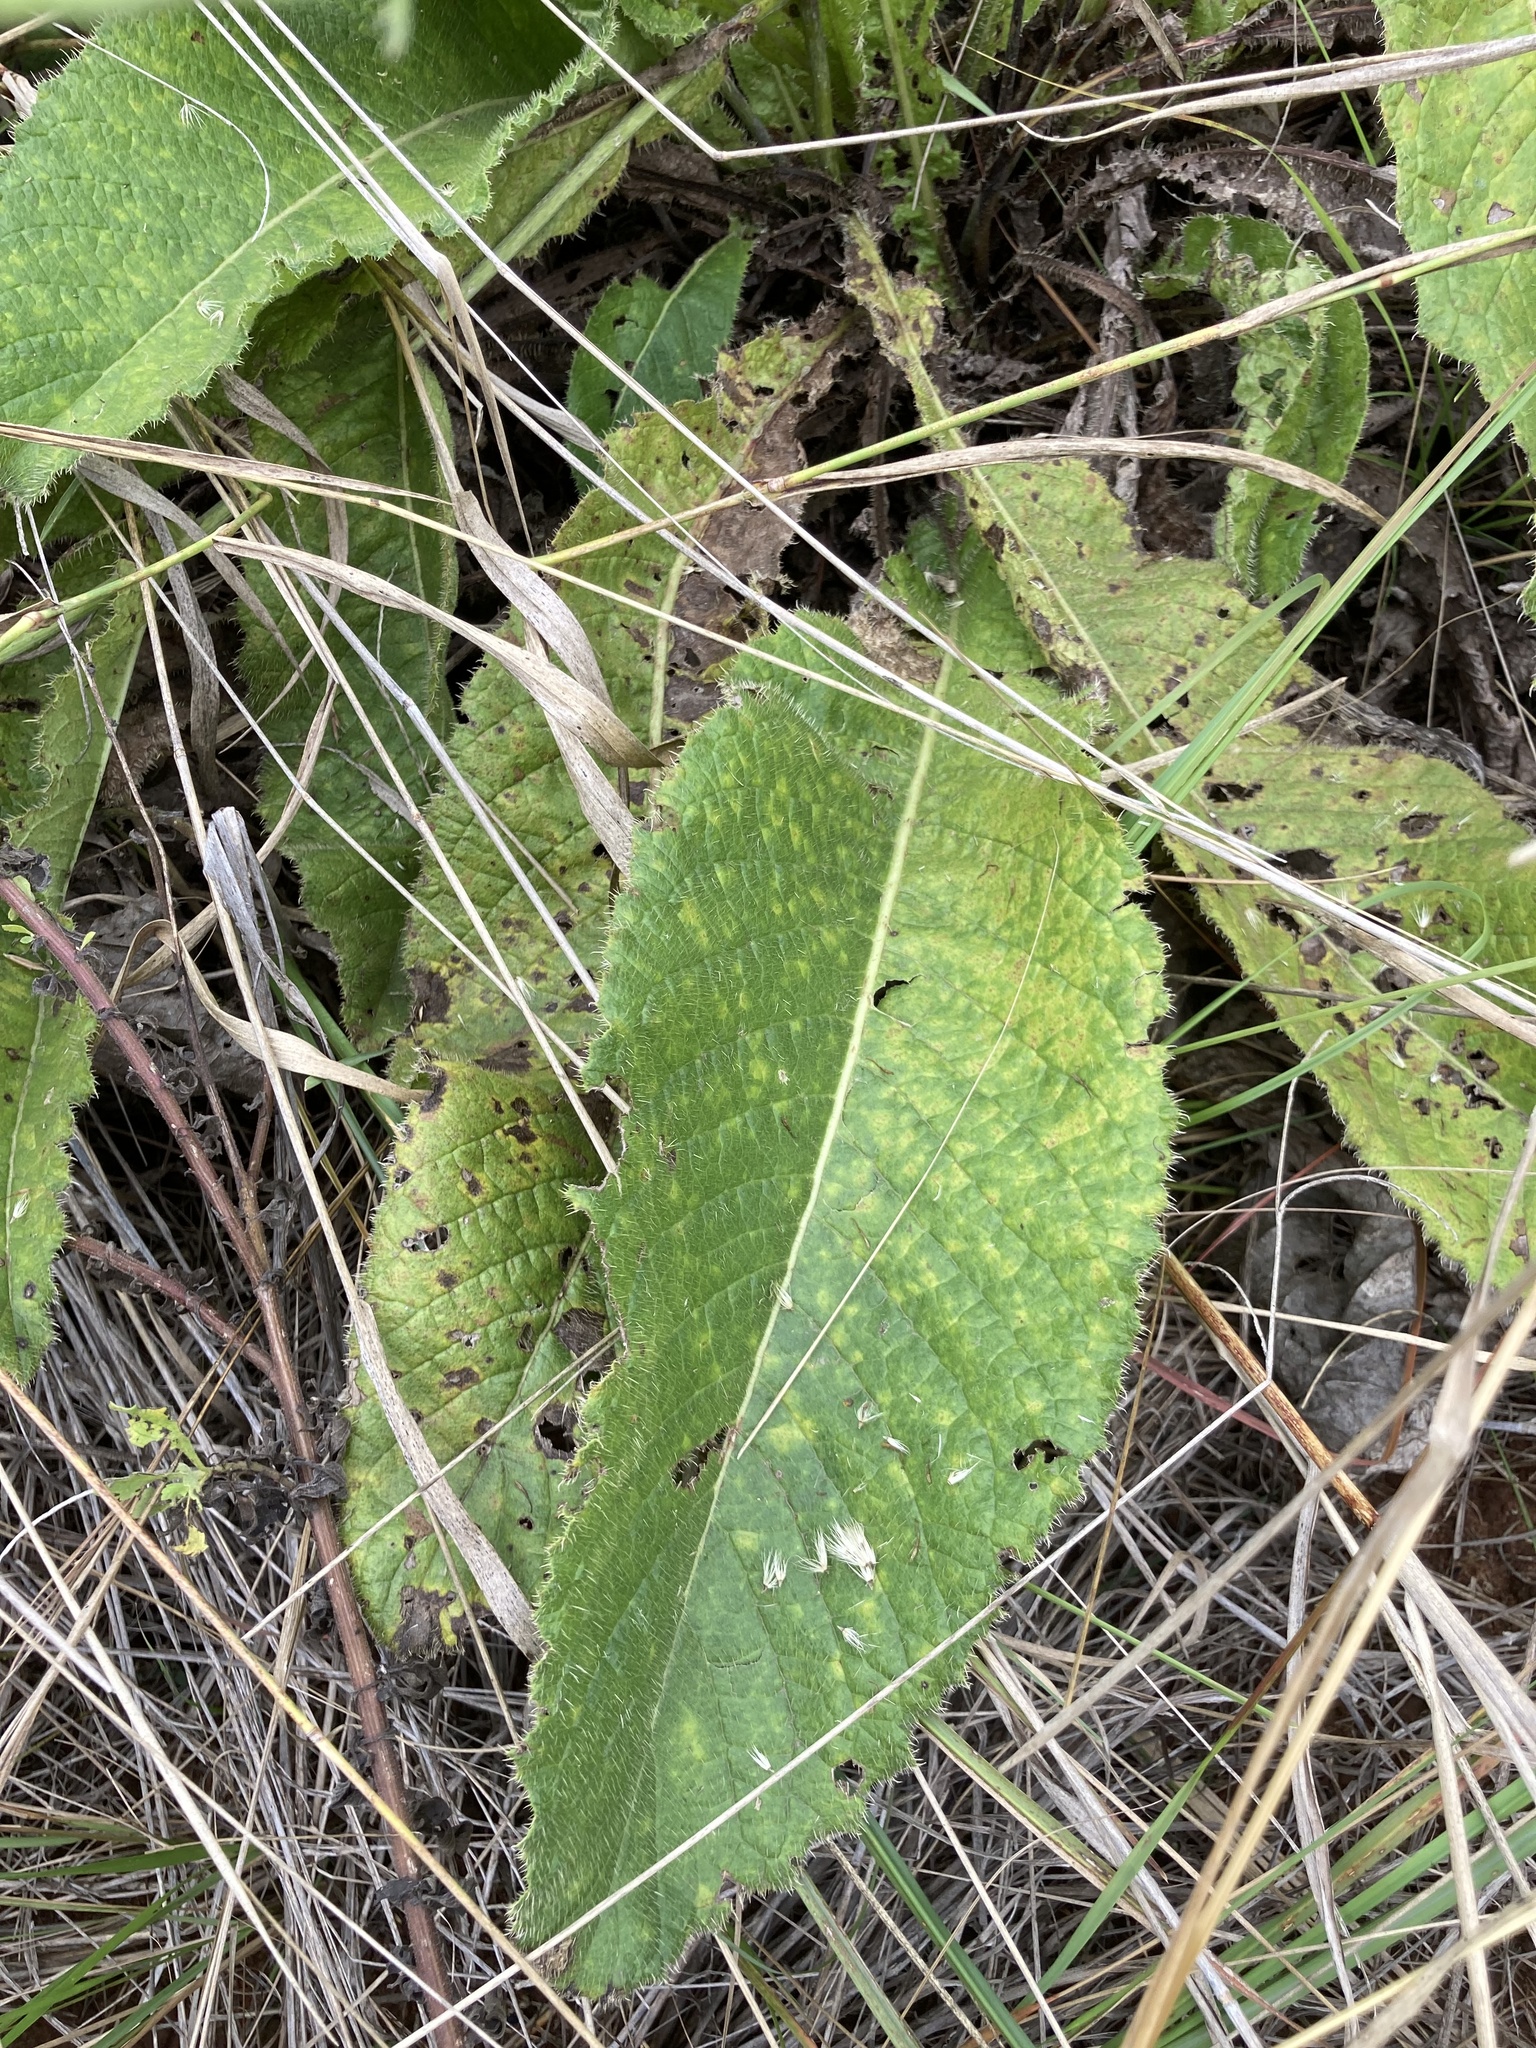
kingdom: Plantae
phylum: Tracheophyta
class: Magnoliopsida
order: Asterales
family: Asteraceae
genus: Berkheya
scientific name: Berkheya setifera
